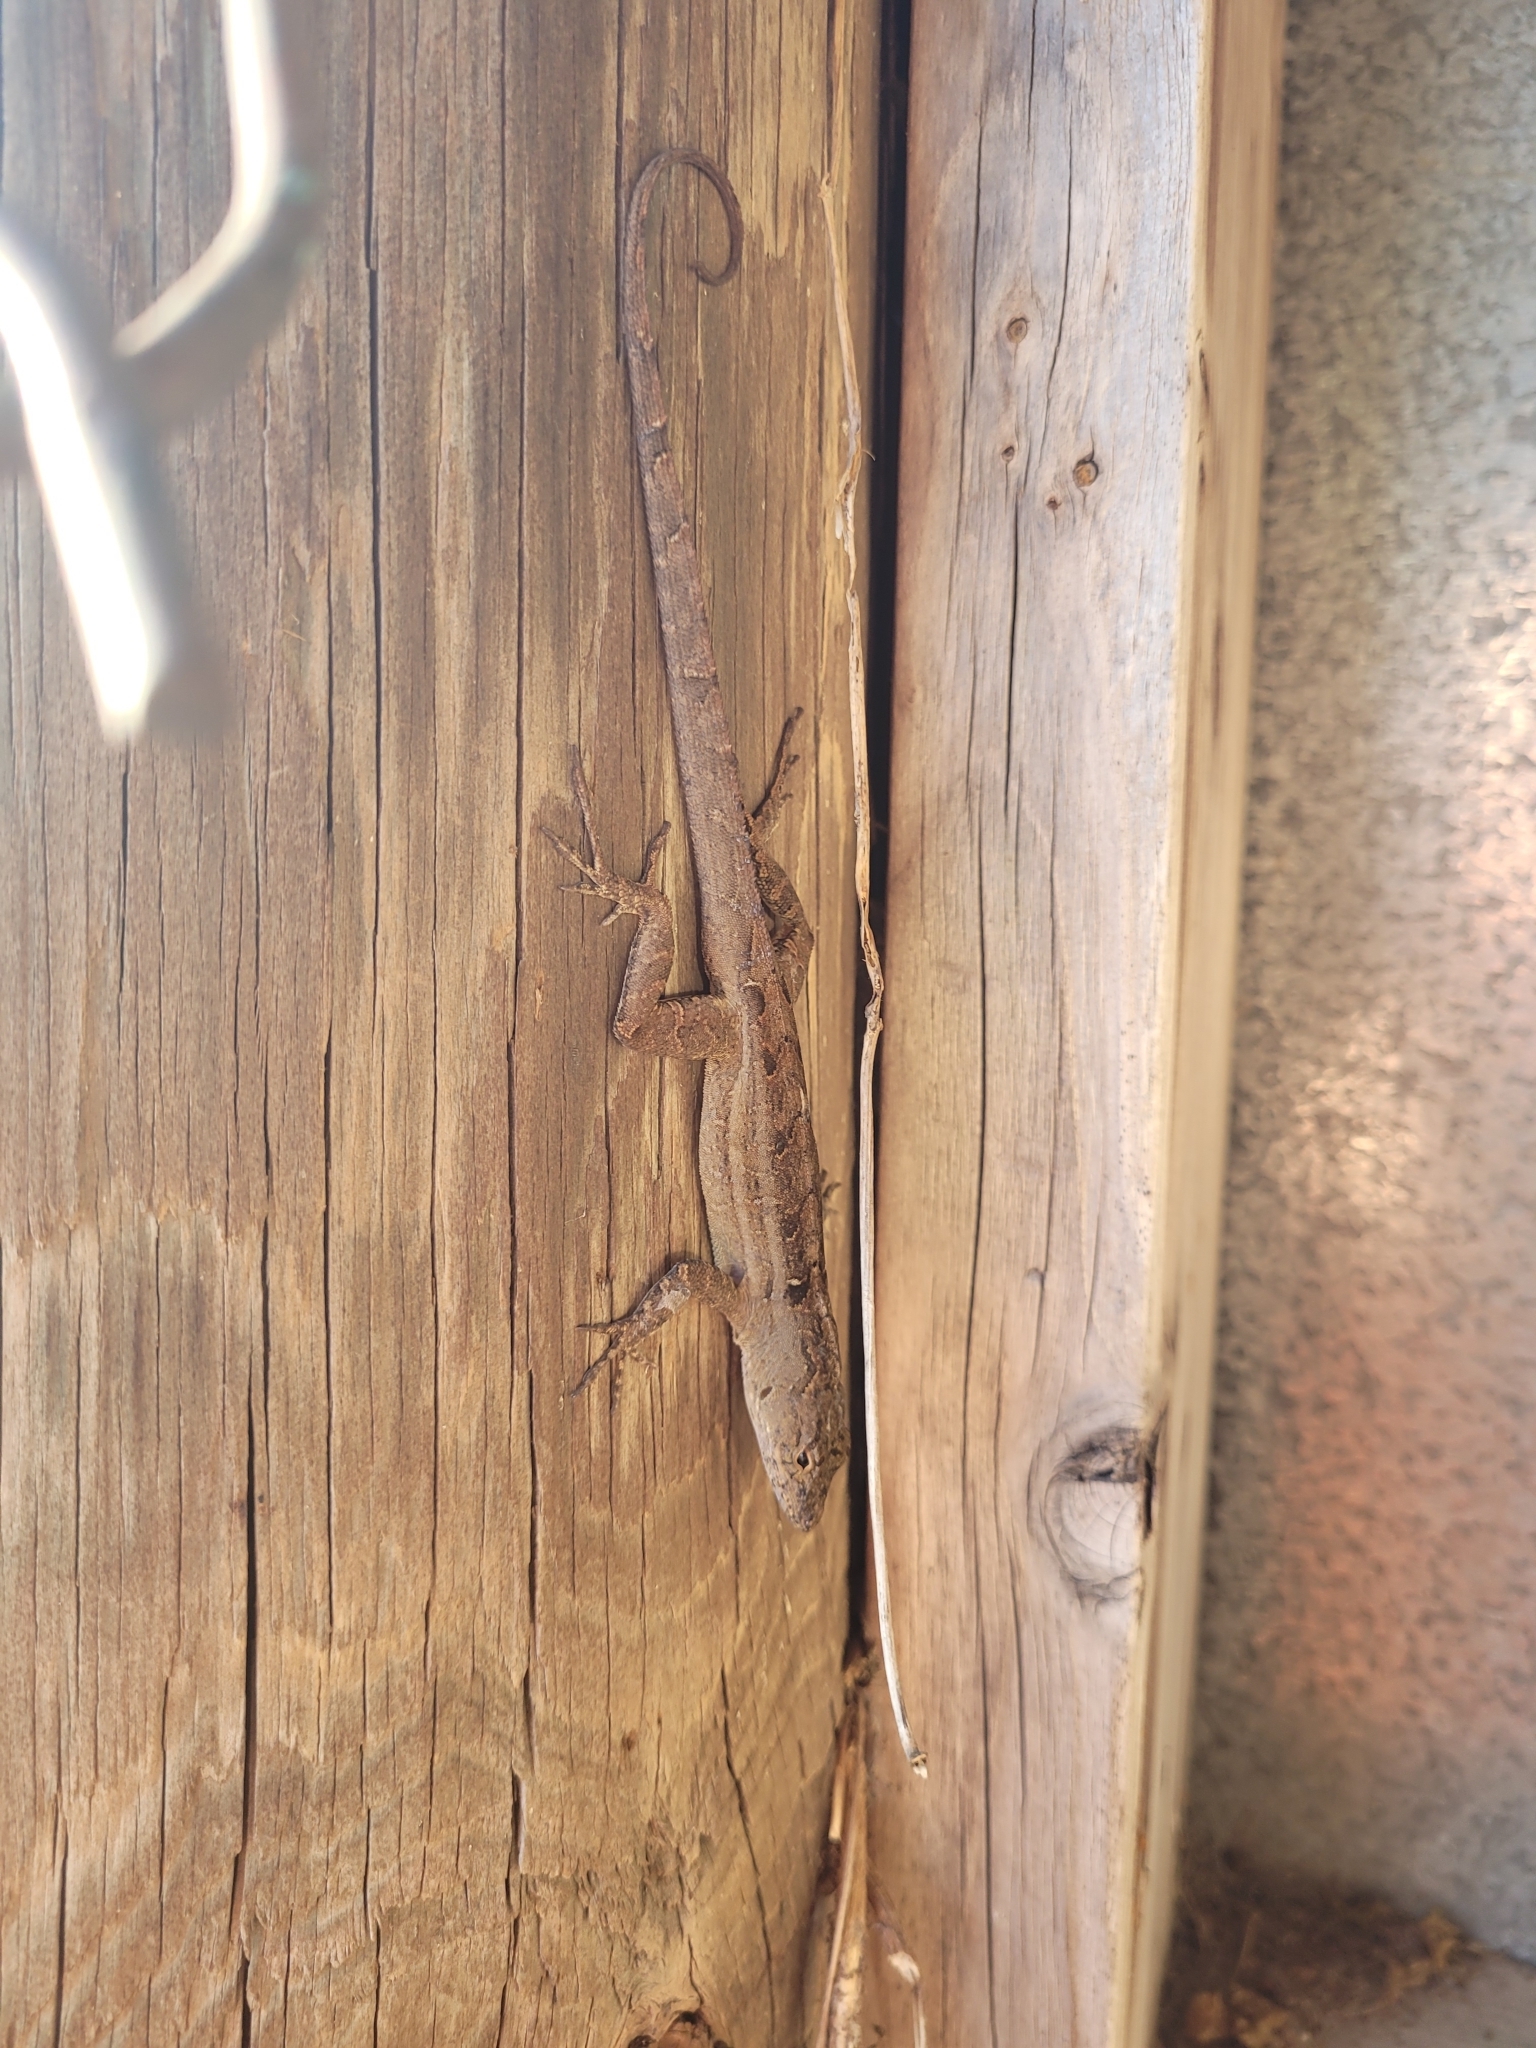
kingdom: Animalia
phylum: Chordata
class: Squamata
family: Dactyloidae
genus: Anolis
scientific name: Anolis sagrei
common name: Brown anole
